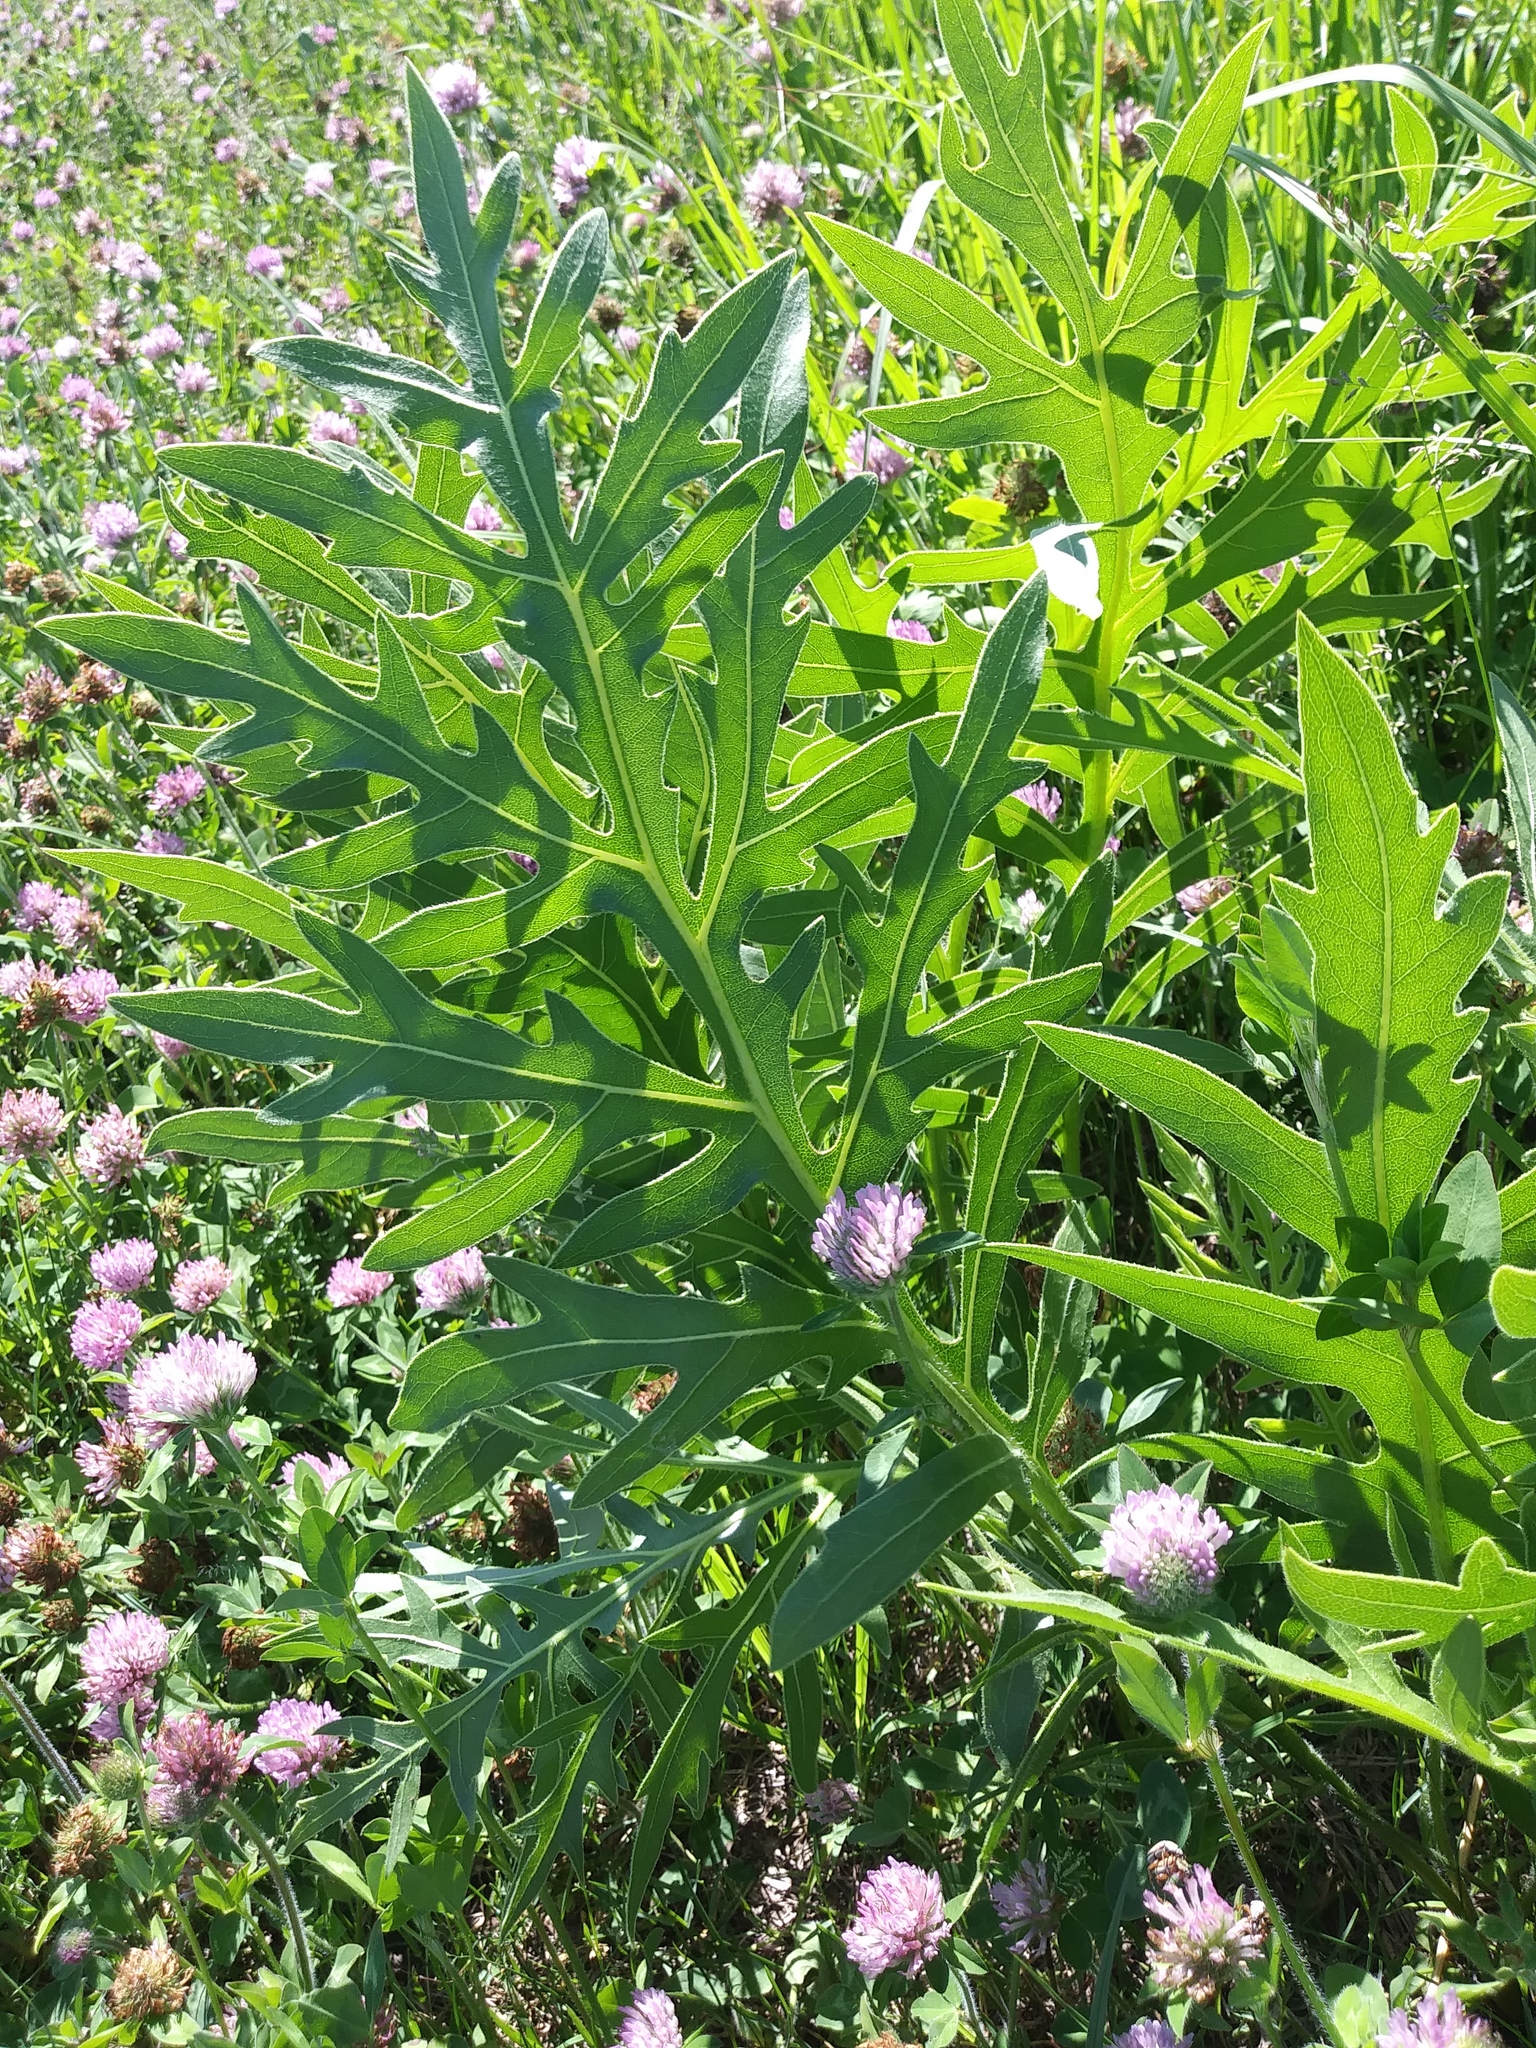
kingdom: Plantae
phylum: Tracheophyta
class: Magnoliopsida
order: Asterales
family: Asteraceae
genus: Silphium
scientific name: Silphium laciniatum
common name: Polarplant
